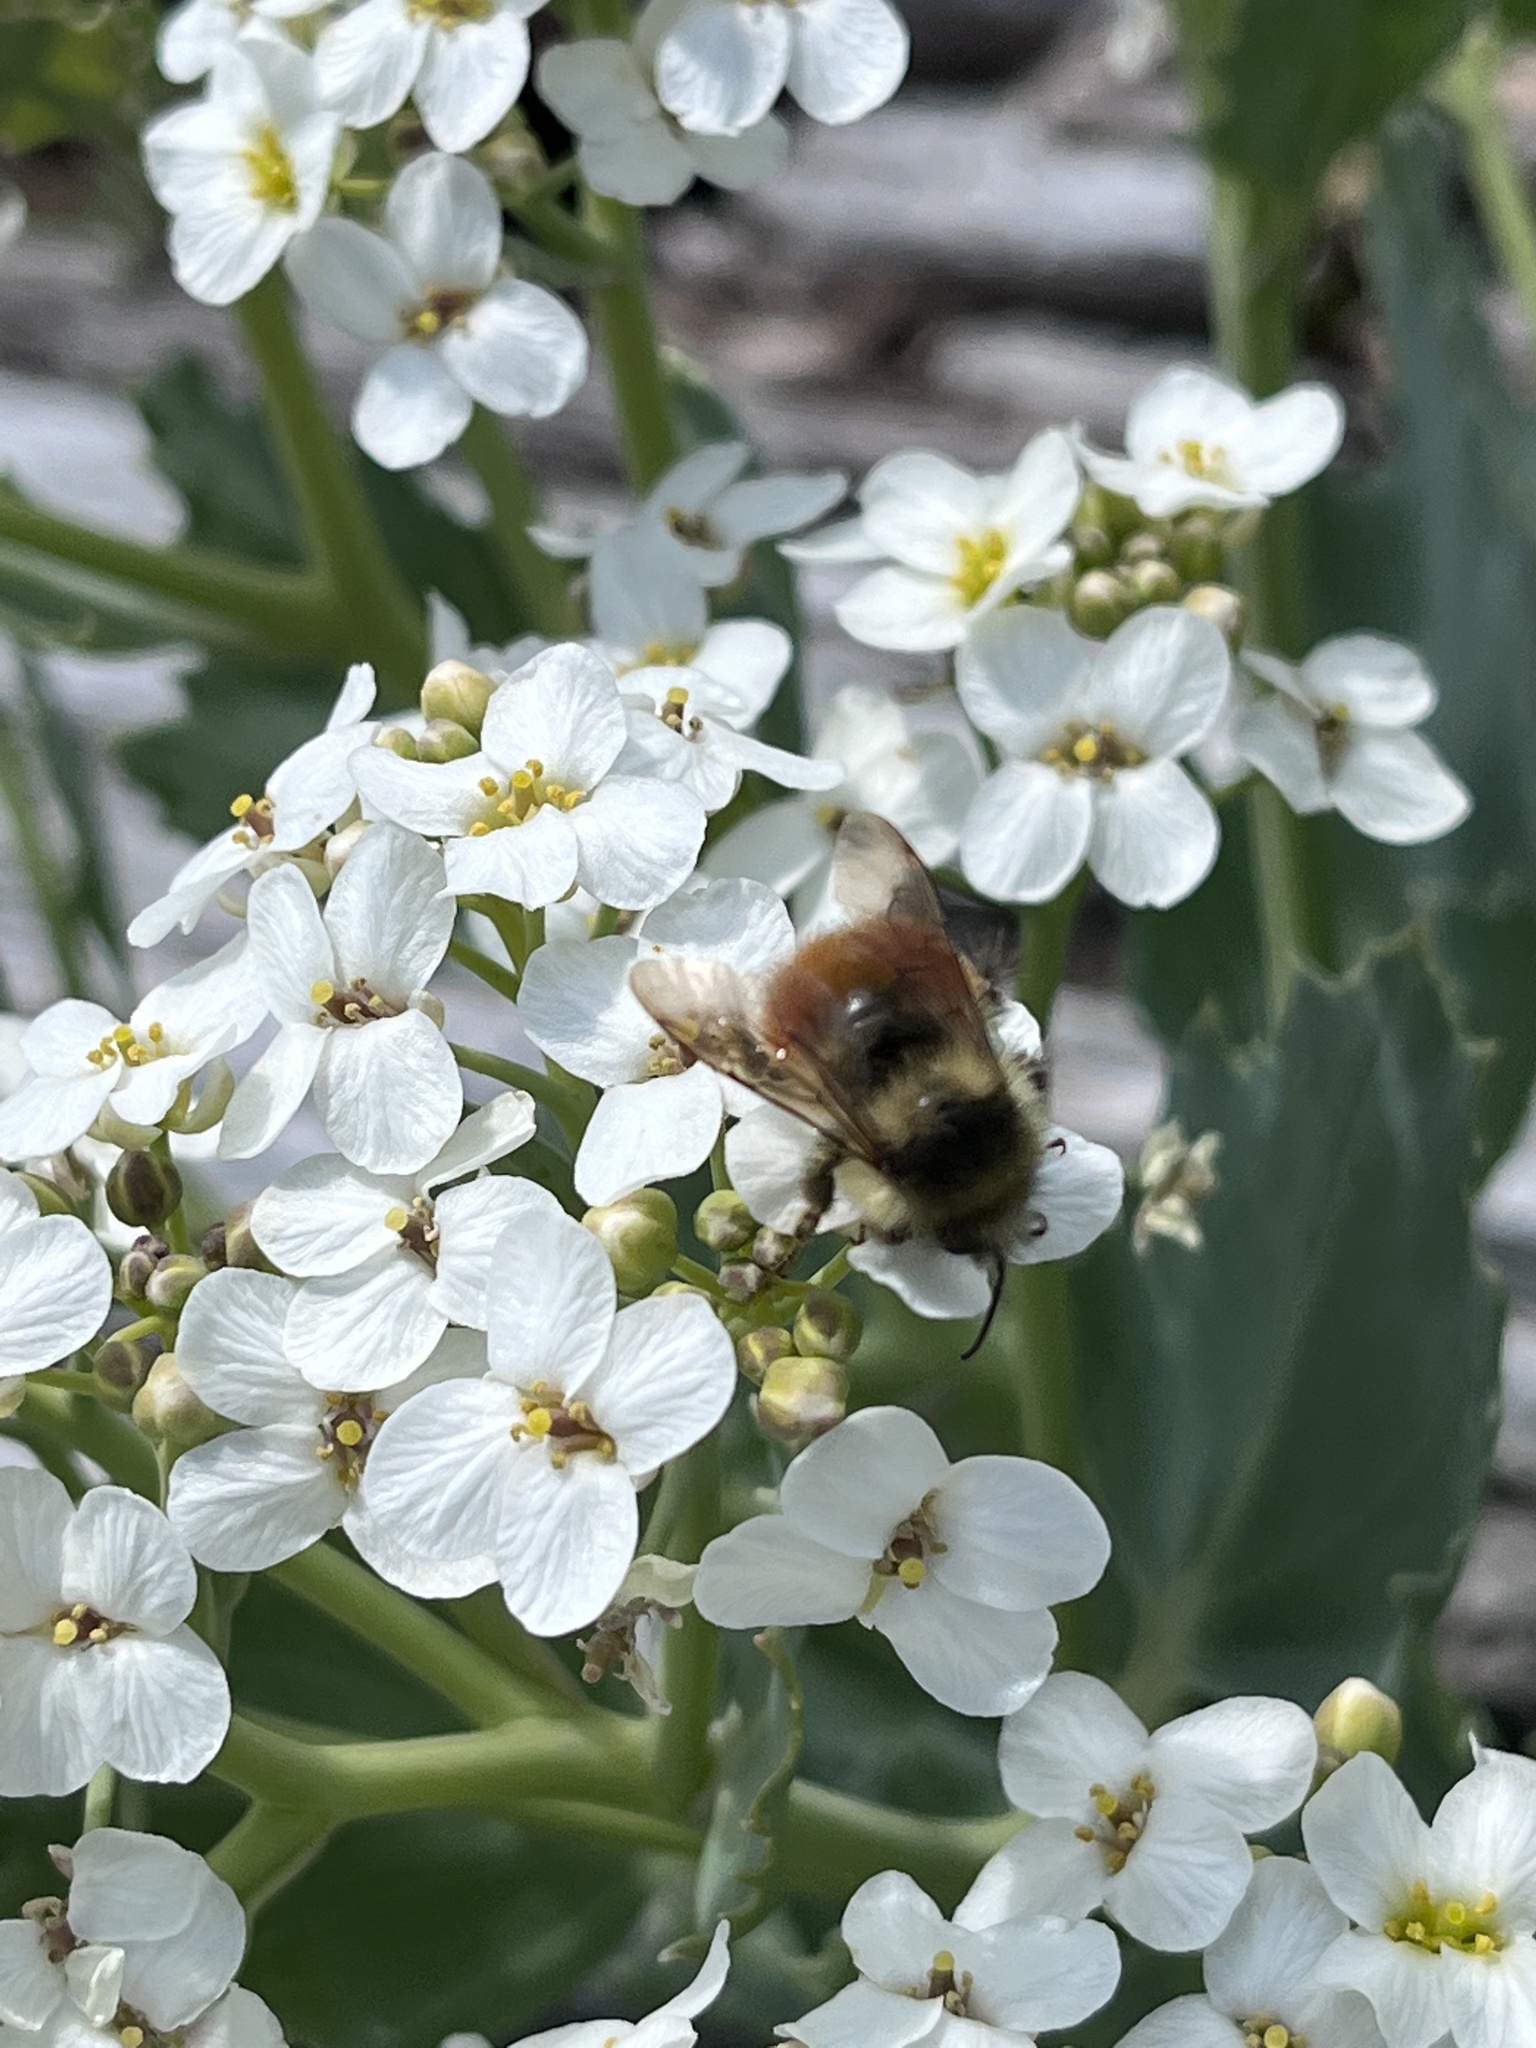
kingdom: Animalia
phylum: Arthropoda
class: Insecta
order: Hymenoptera
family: Apidae
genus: Bombus
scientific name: Bombus melanopygus
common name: Black tail bumble bee
